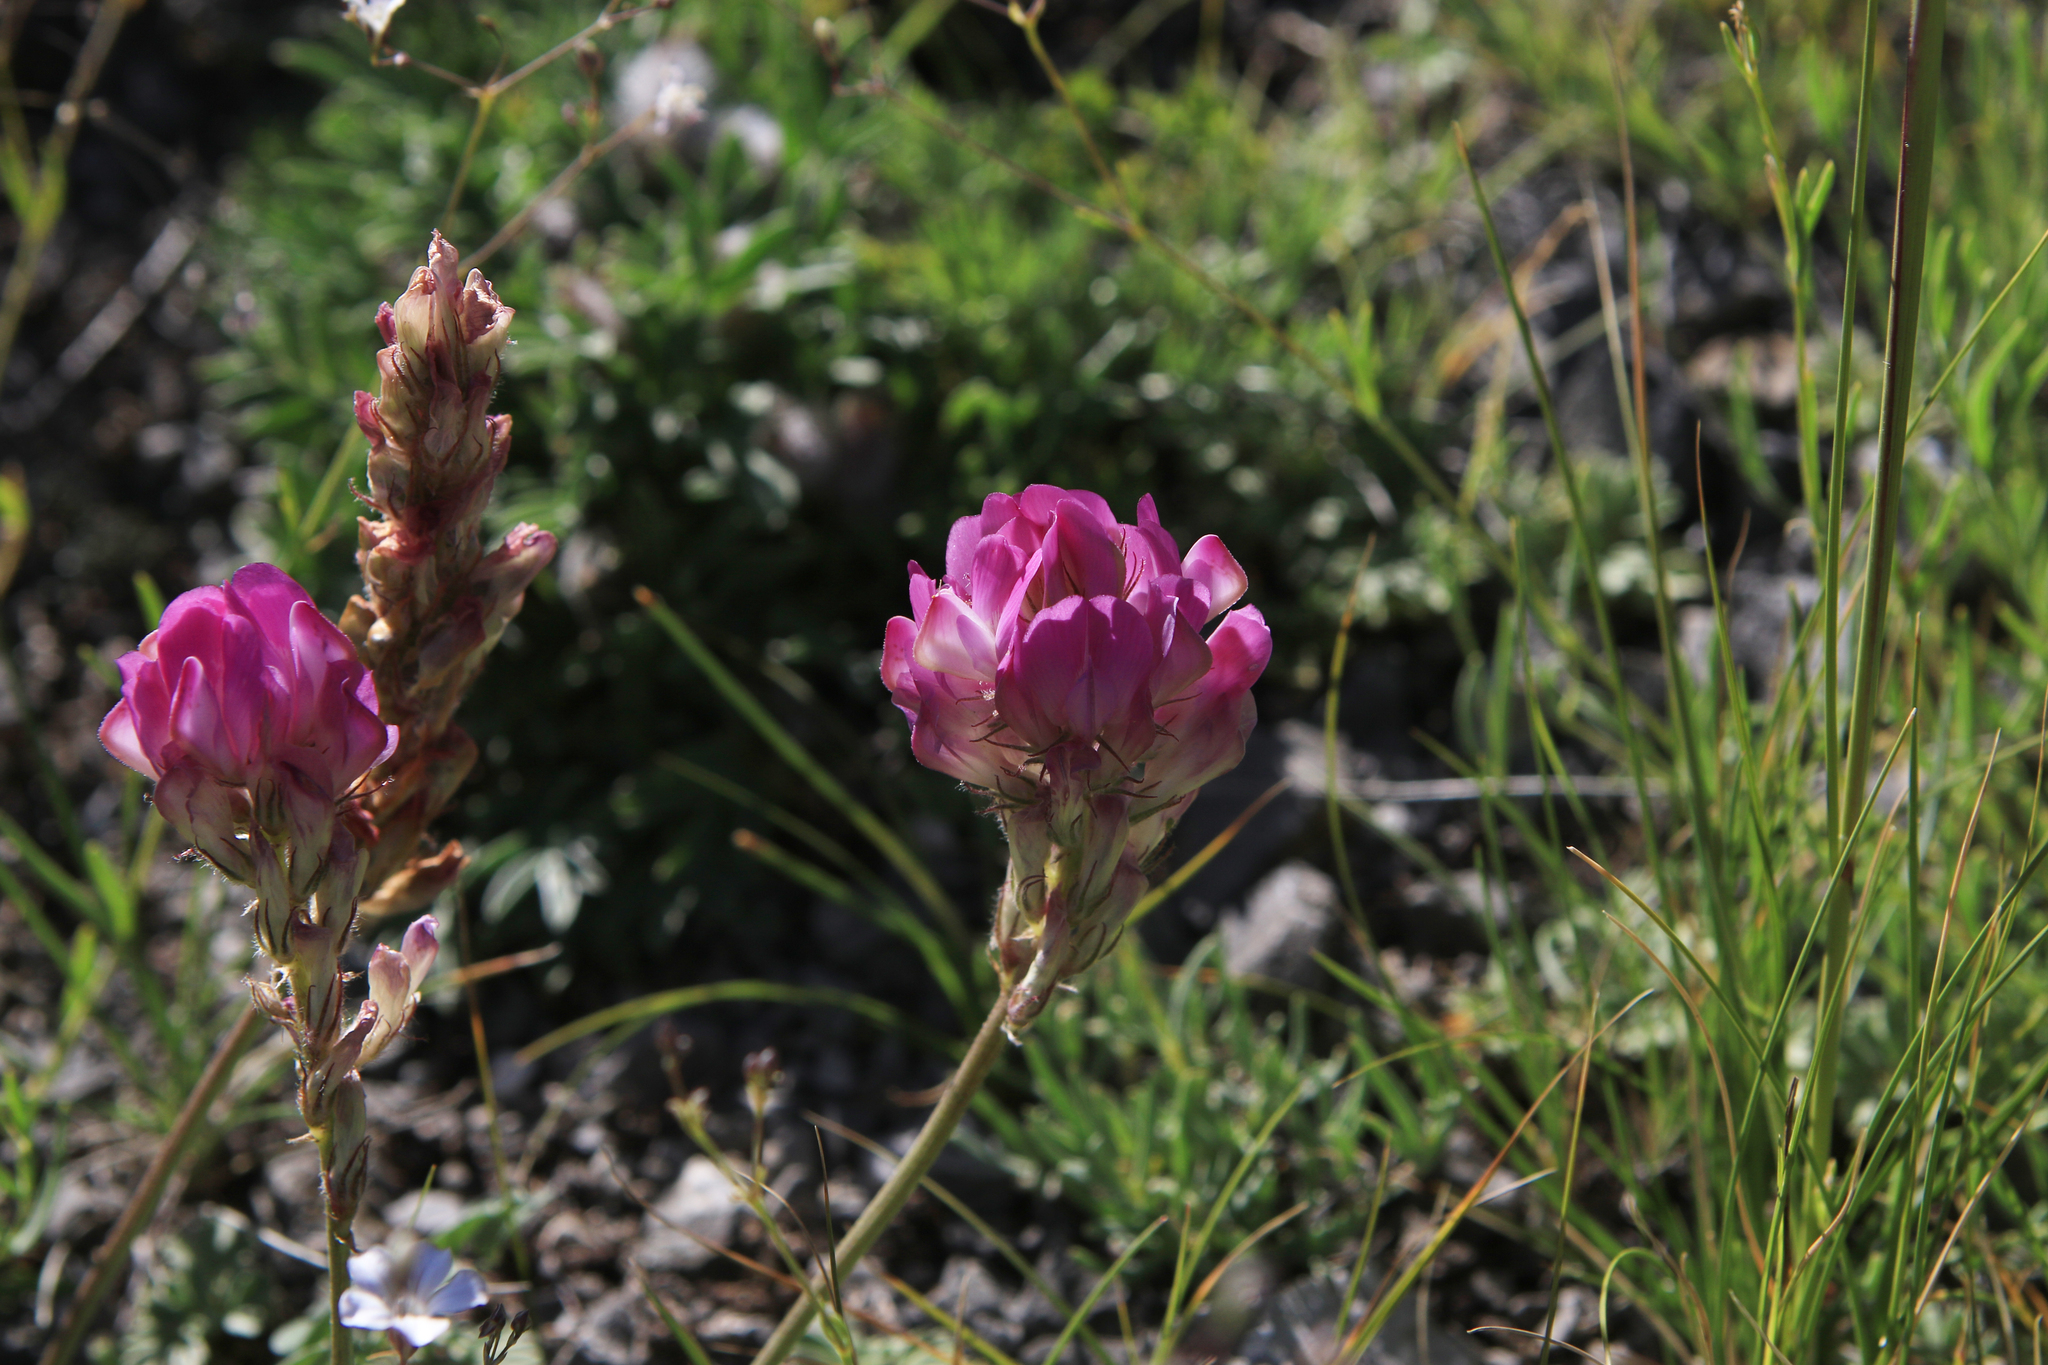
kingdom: Plantae
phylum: Tracheophyta
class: Magnoliopsida
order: Fabales
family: Fabaceae
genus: Hedysarum
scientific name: Hedysarum gmelinii
